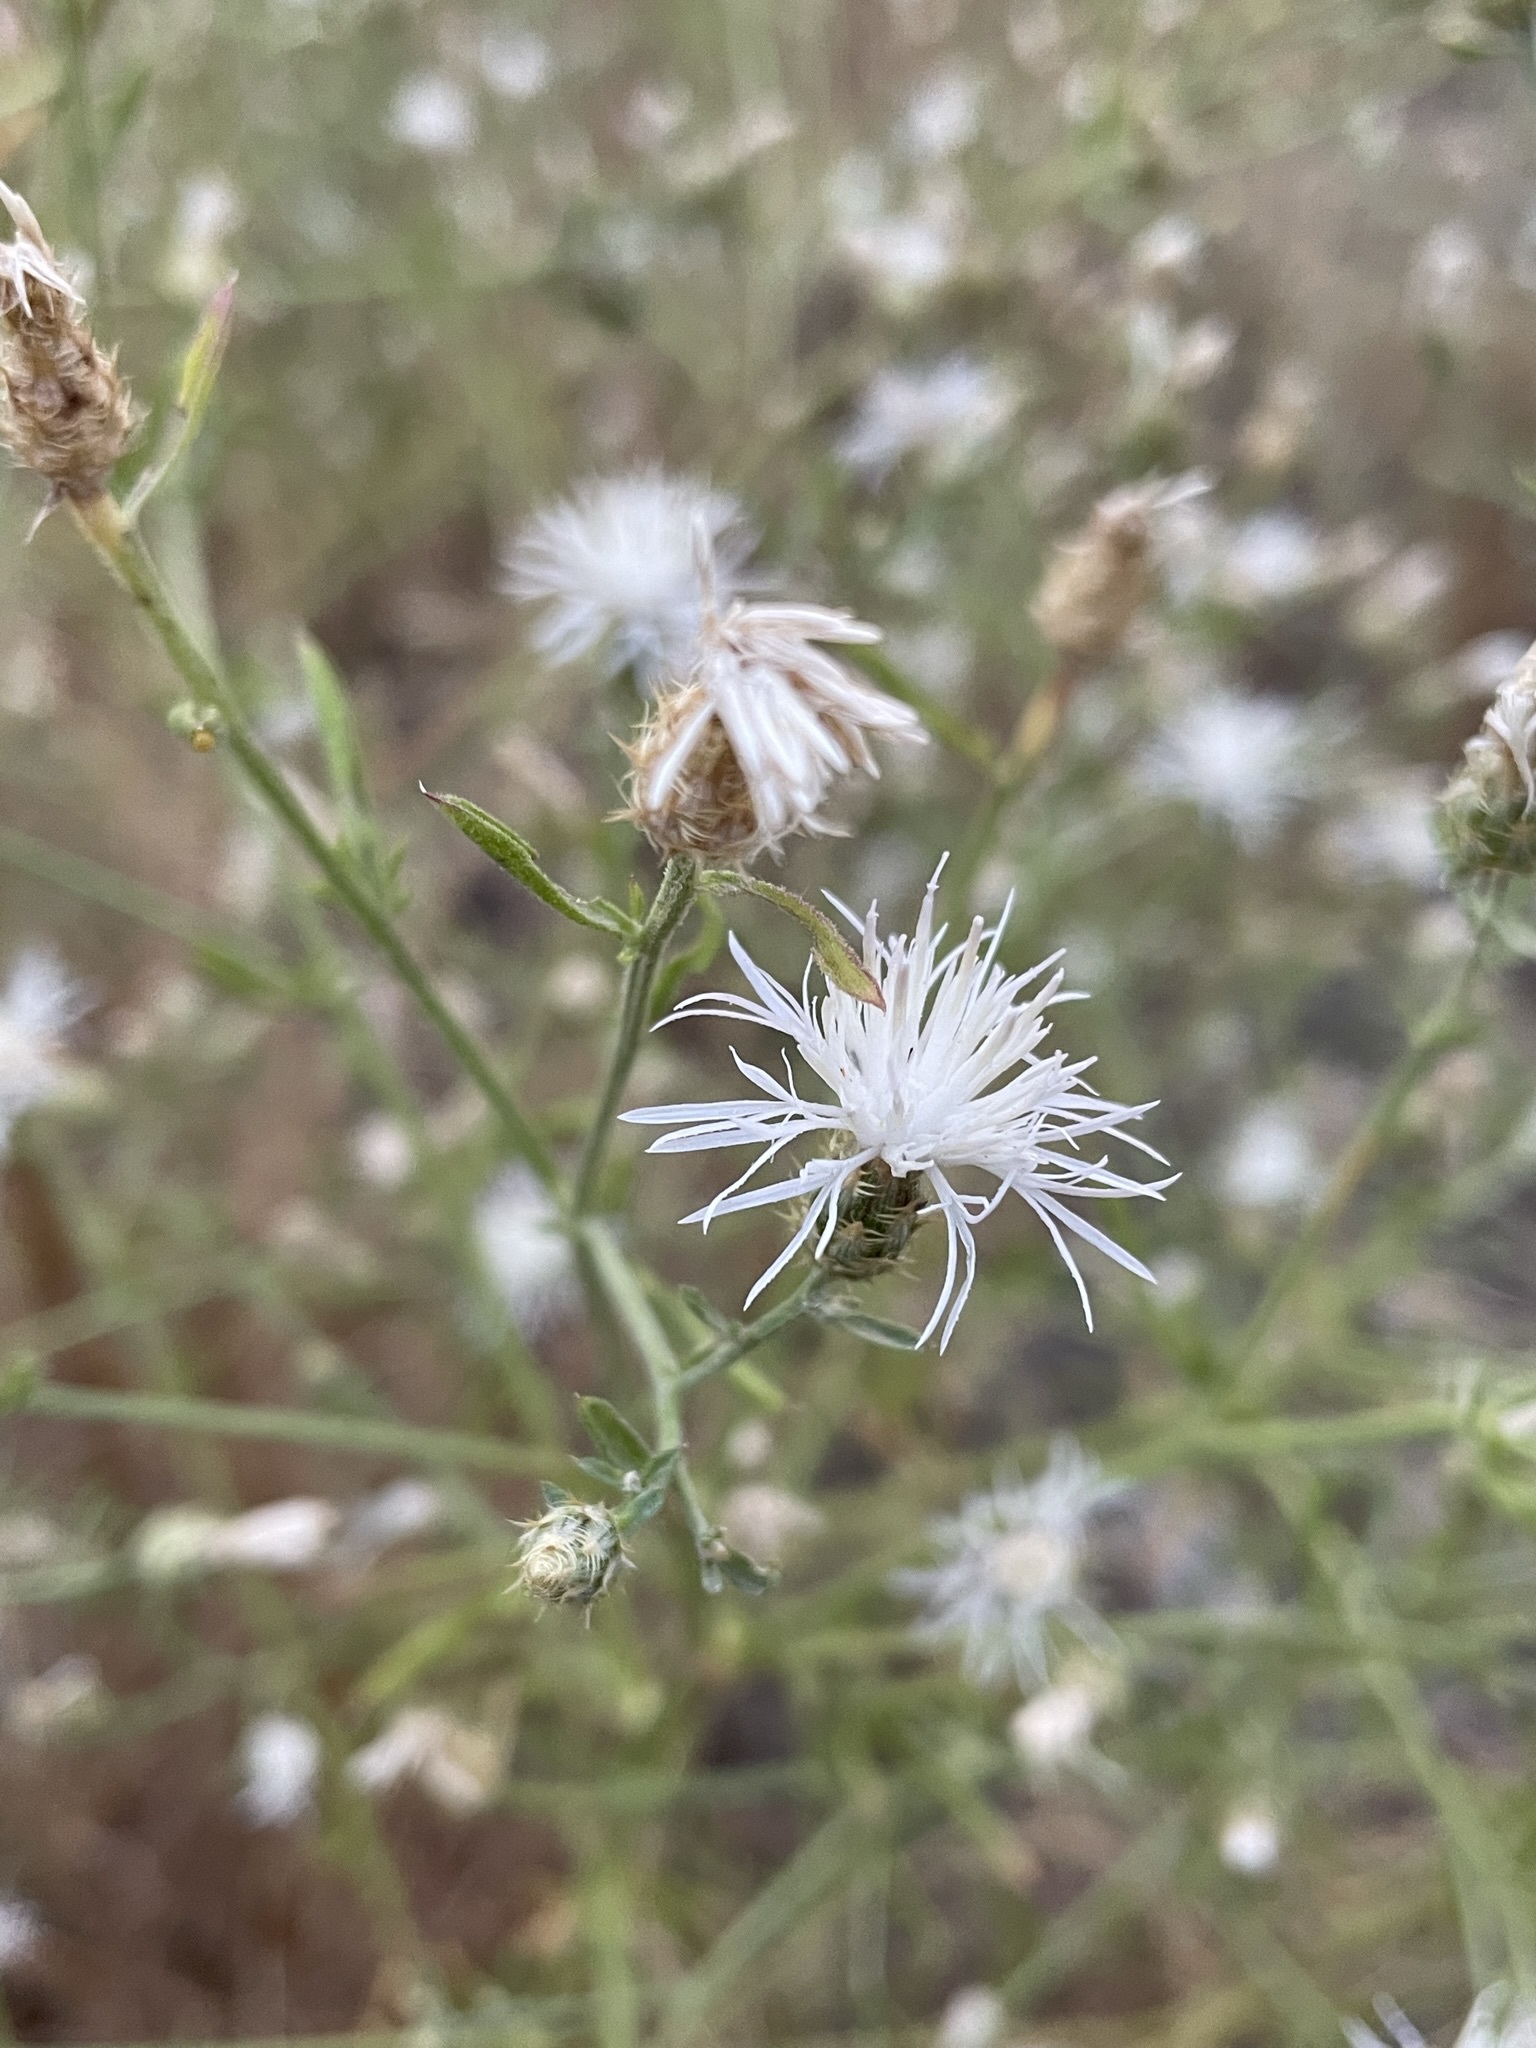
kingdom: Plantae
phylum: Tracheophyta
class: Magnoliopsida
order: Asterales
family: Asteraceae
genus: Centaurea
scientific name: Centaurea diffusa
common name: Diffuse knapweed
